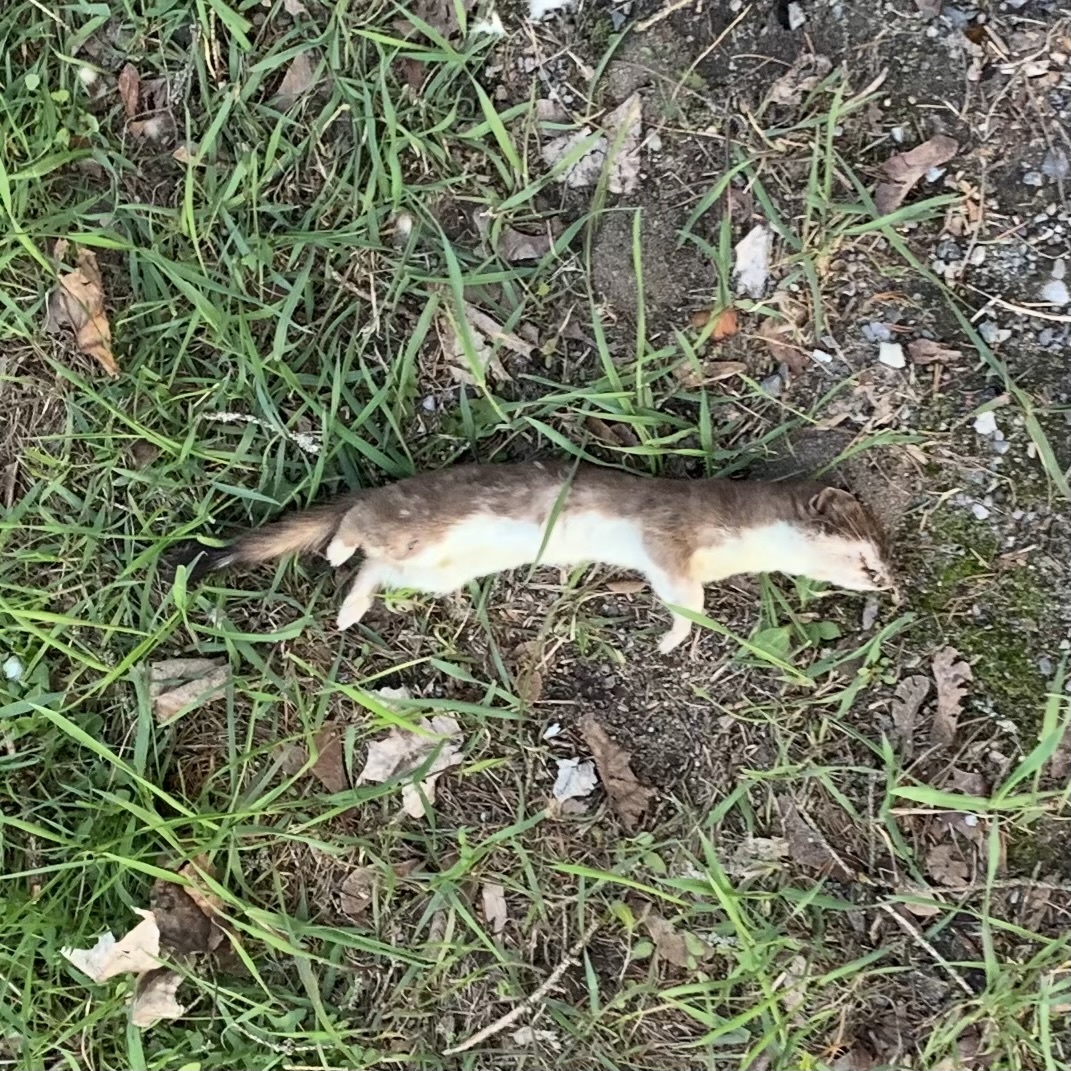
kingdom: Animalia
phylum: Chordata
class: Mammalia
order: Carnivora
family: Mustelidae
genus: Mustela
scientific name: Mustela erminea
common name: Stoat
